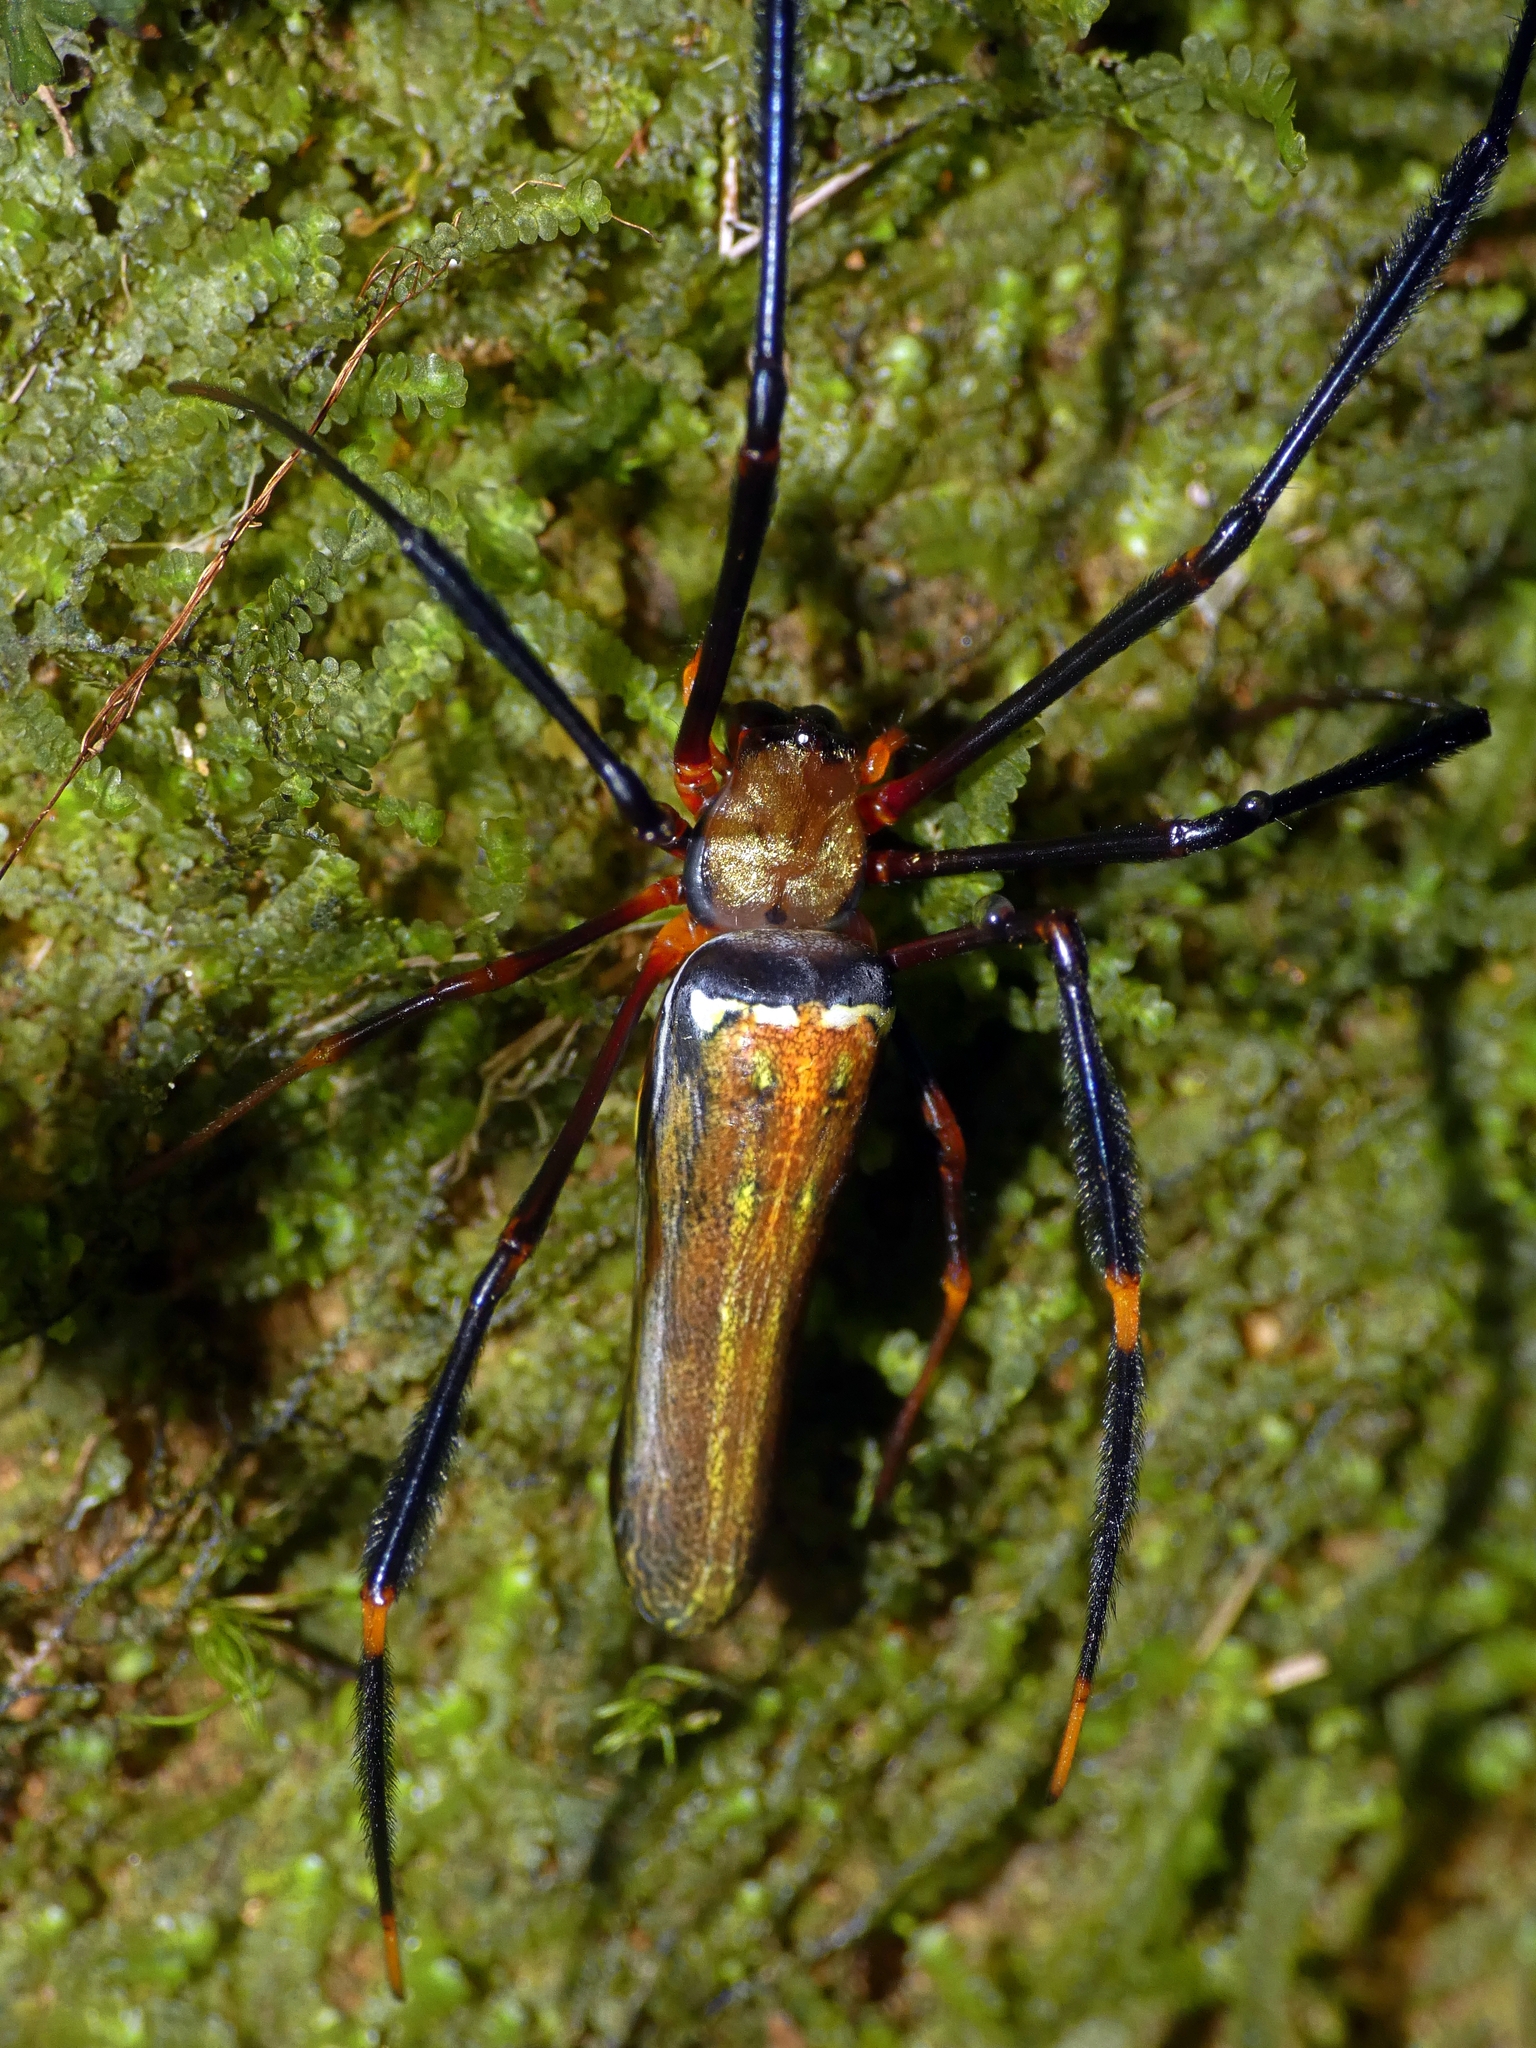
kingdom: Animalia
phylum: Arthropoda
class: Arachnida
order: Araneae
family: Araneidae
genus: Nephila
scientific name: Nephila pilipes
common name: Giant golden orb weaver
